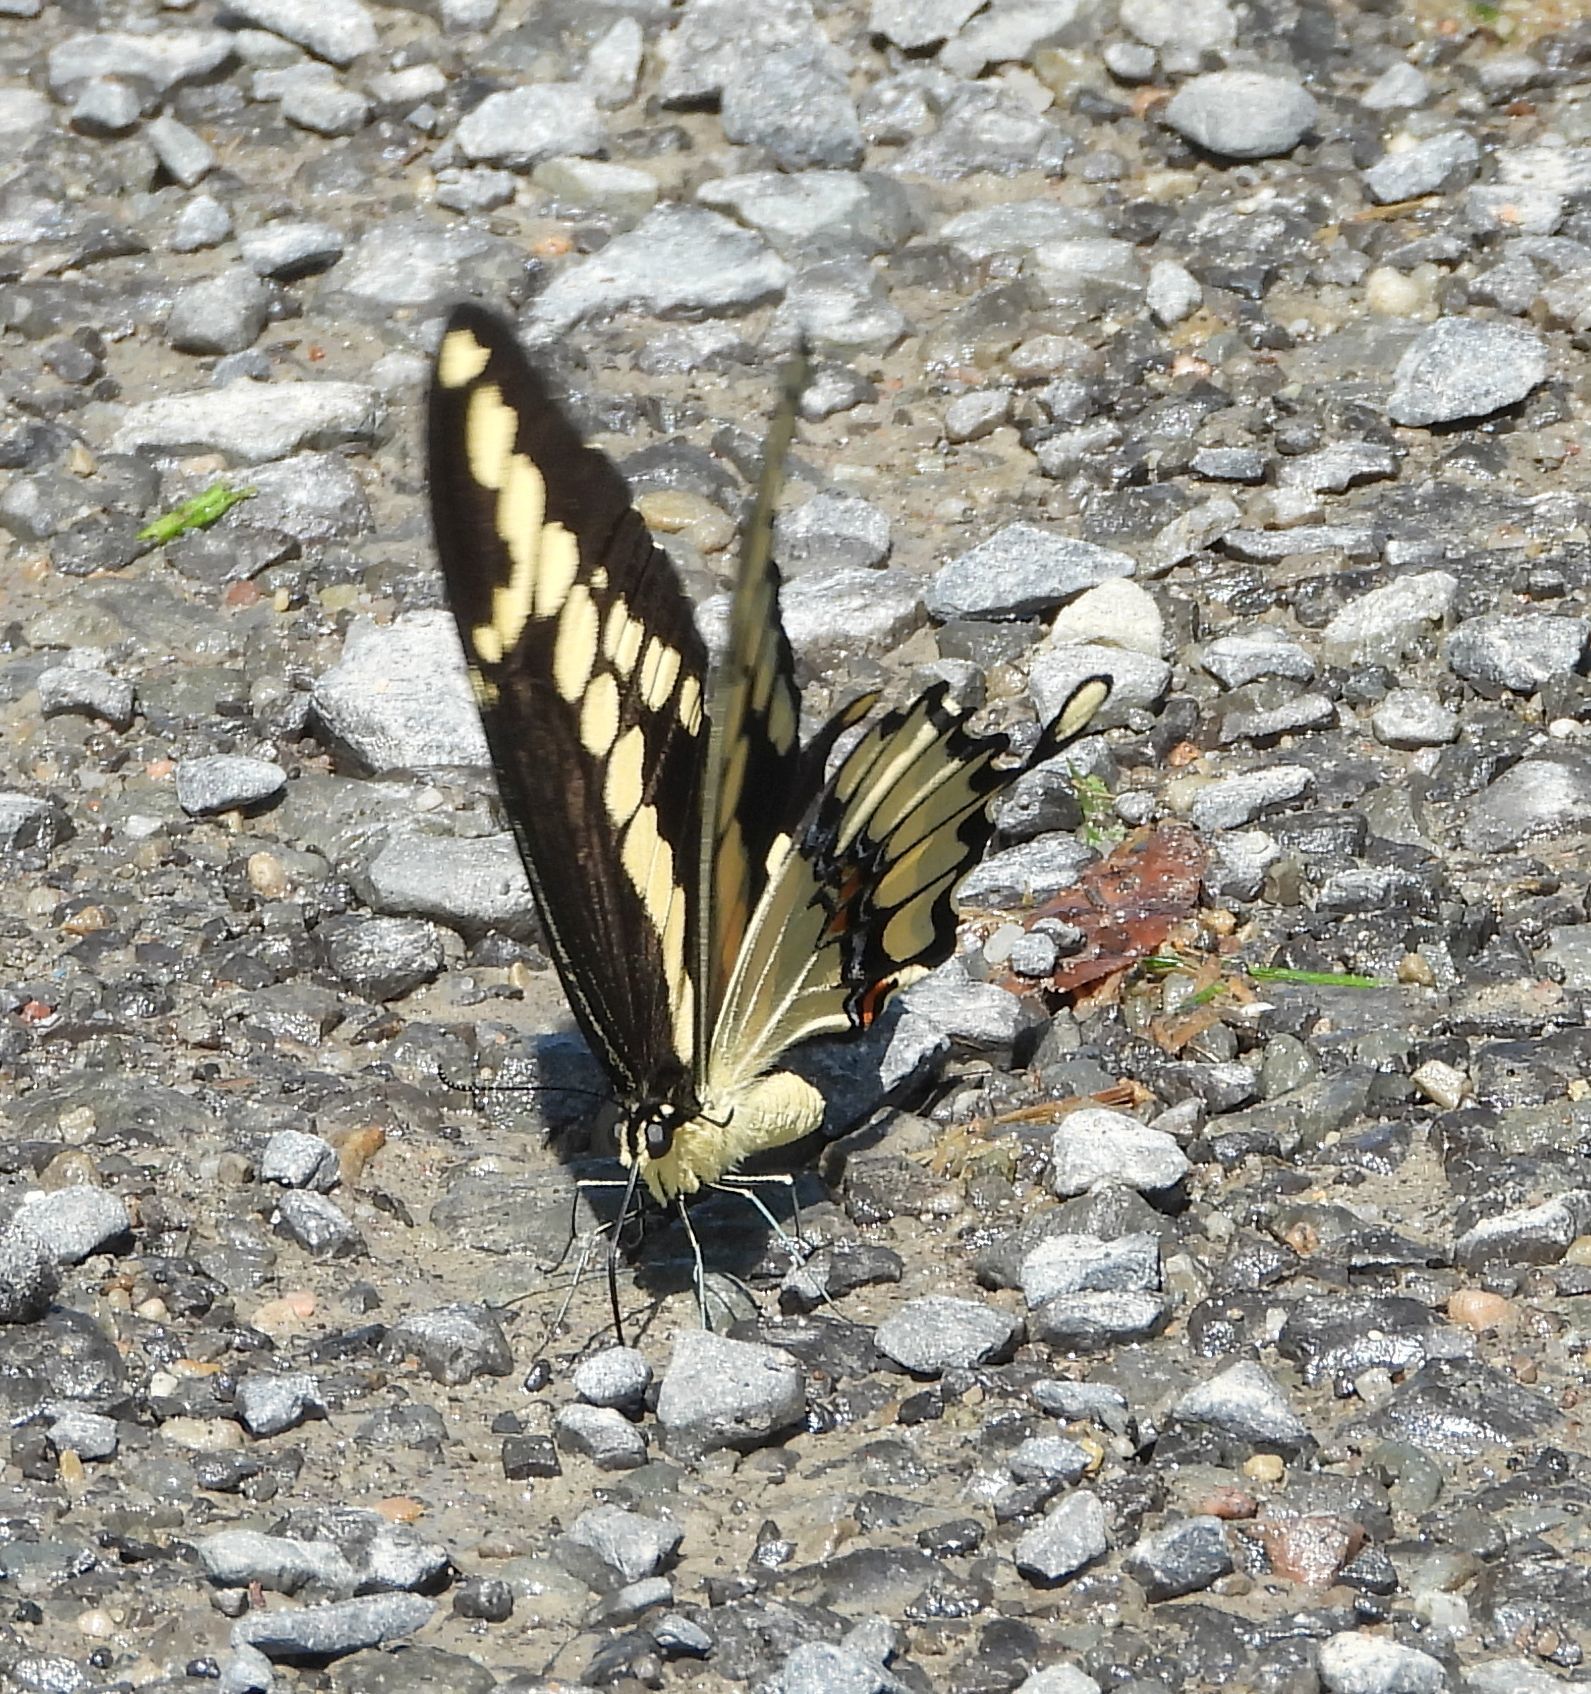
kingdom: Animalia
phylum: Arthropoda
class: Insecta
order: Lepidoptera
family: Papilionidae
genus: Papilio
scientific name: Papilio cresphontes
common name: Giant swallowtail
